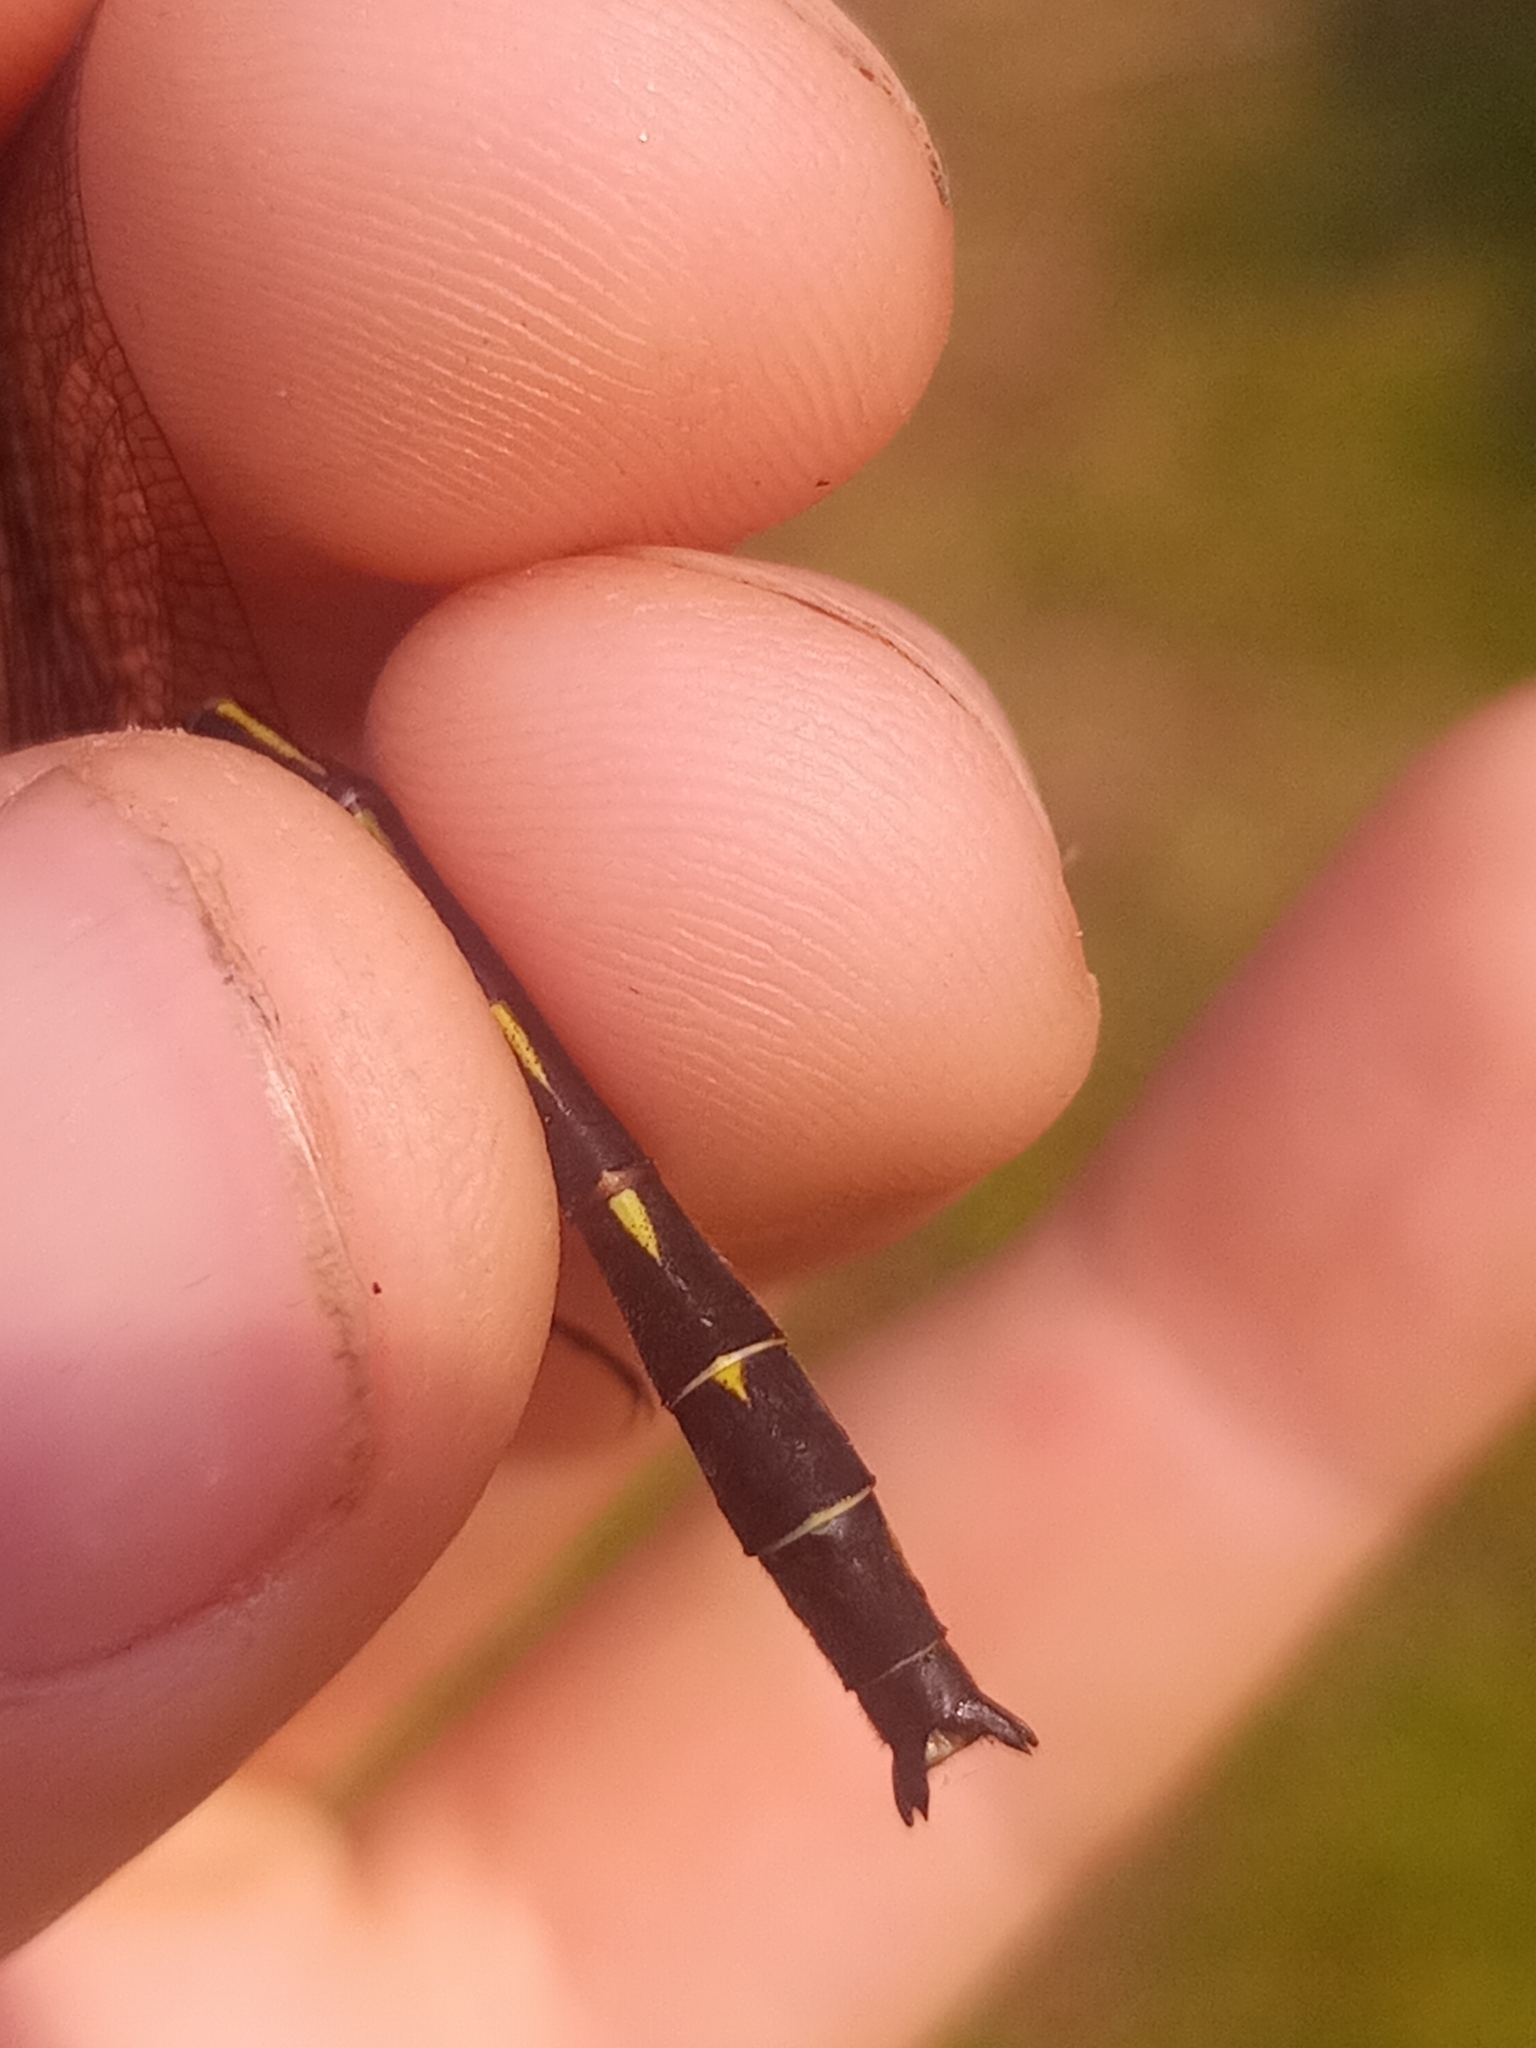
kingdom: Animalia
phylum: Arthropoda
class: Insecta
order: Odonata
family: Gomphidae
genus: Phanogomphus
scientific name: Phanogomphus lividus
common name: Ashy clubtail
